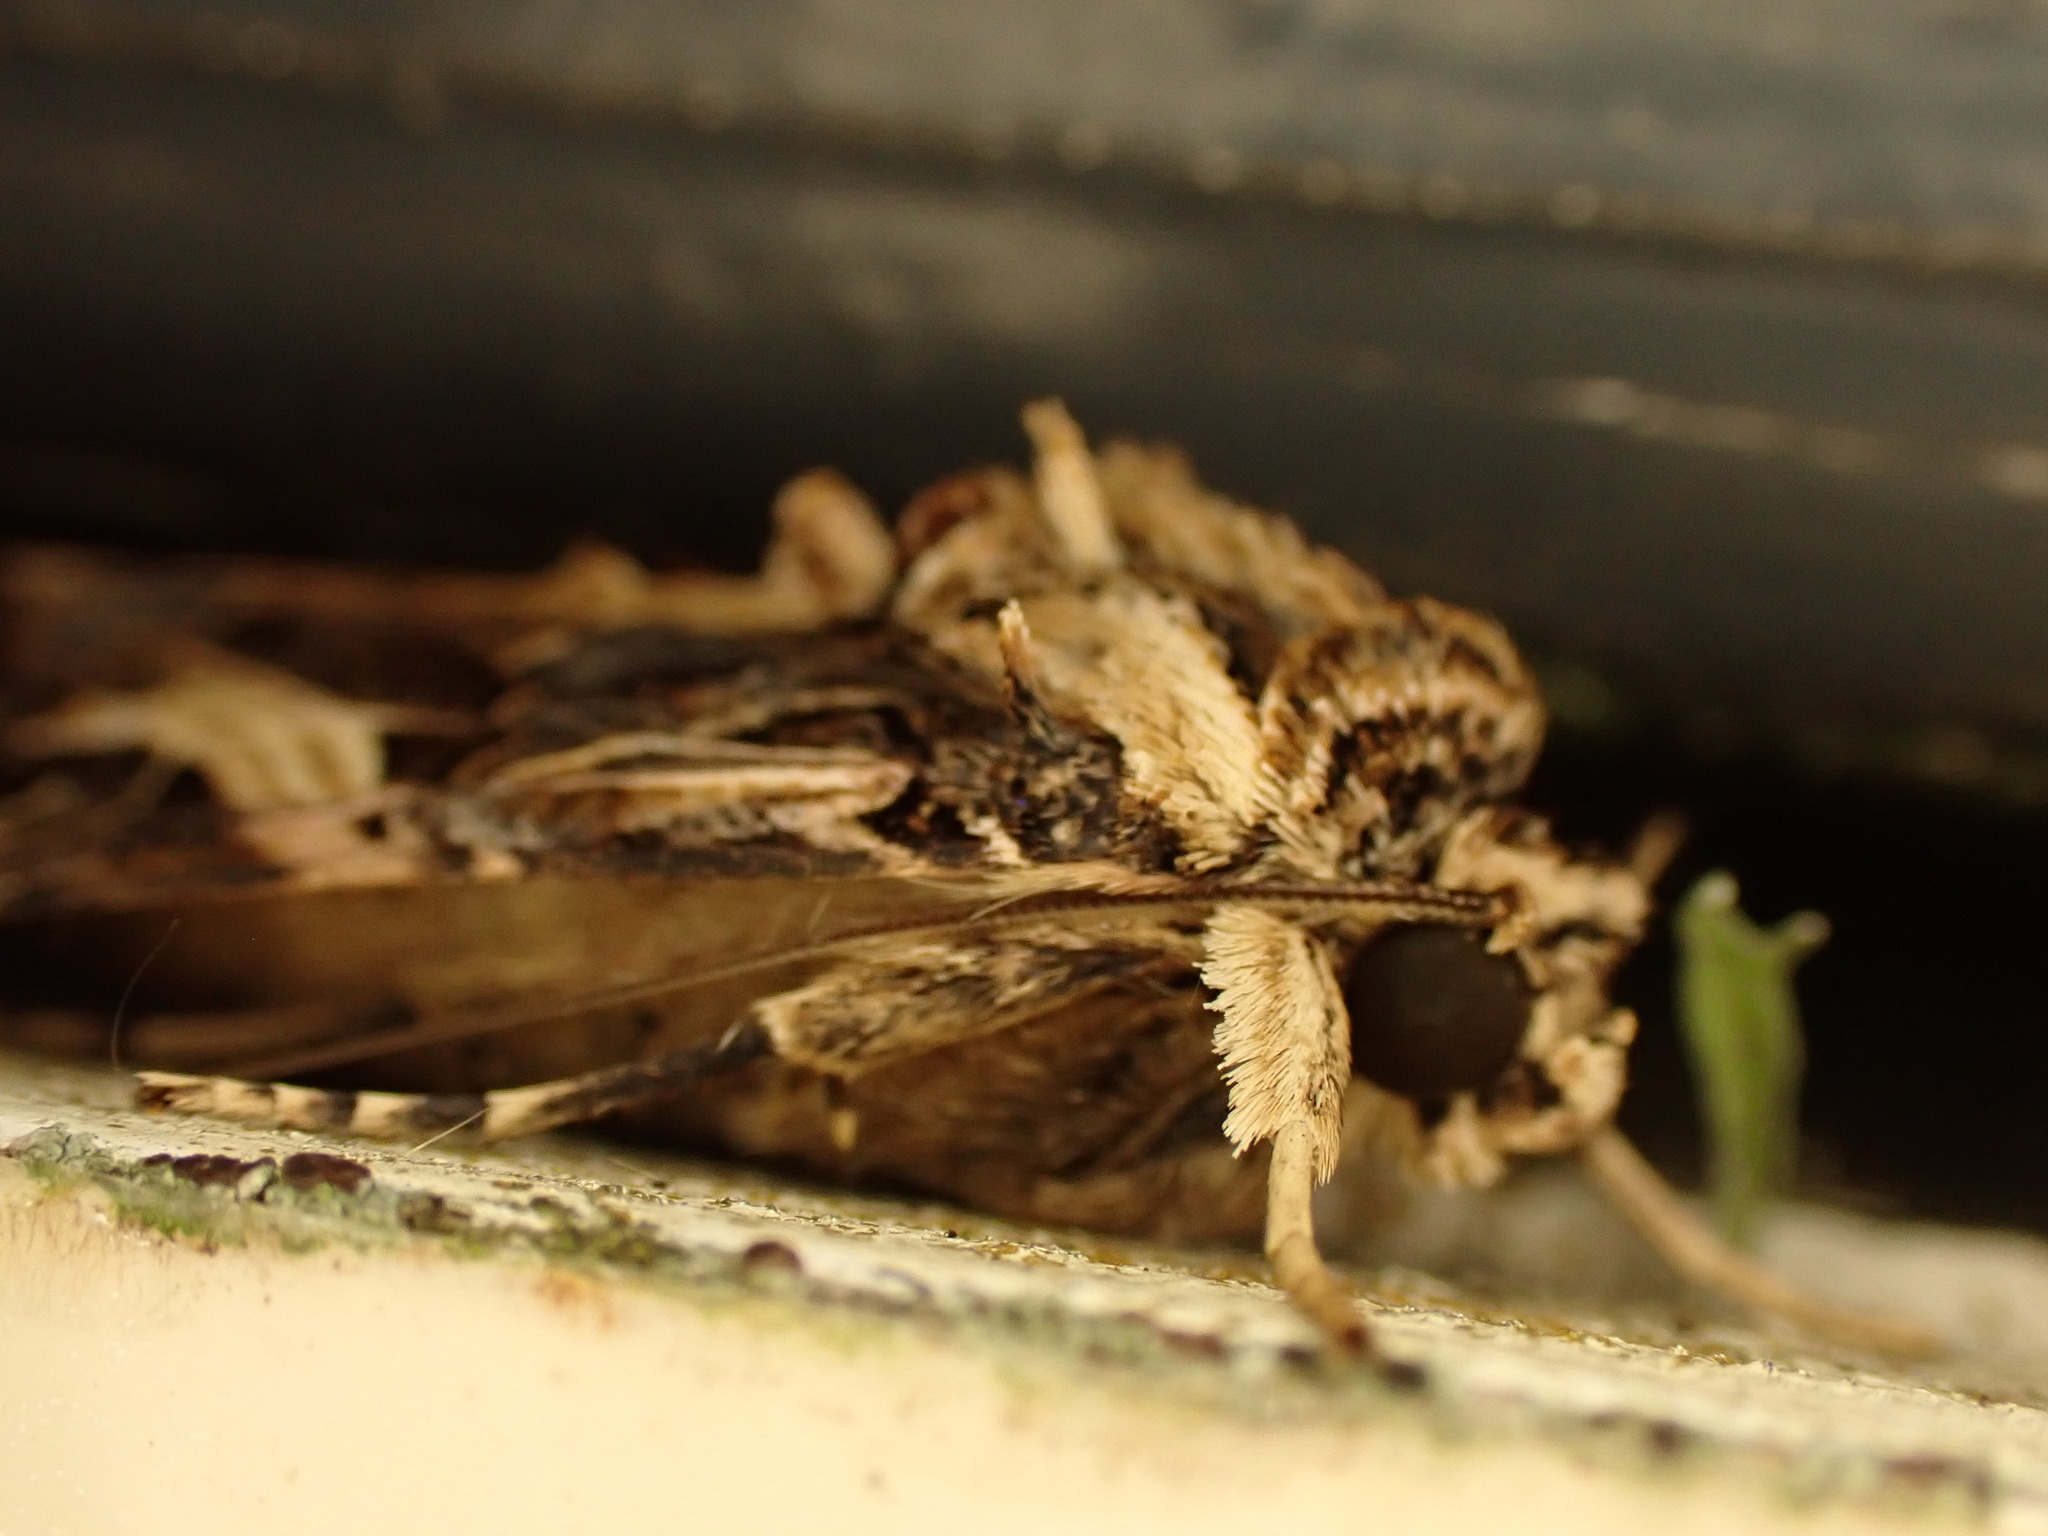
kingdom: Animalia
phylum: Arthropoda
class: Insecta
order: Lepidoptera
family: Noctuidae
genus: Spodoptera
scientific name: Spodoptera litura
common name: Asian cotton leafworm
